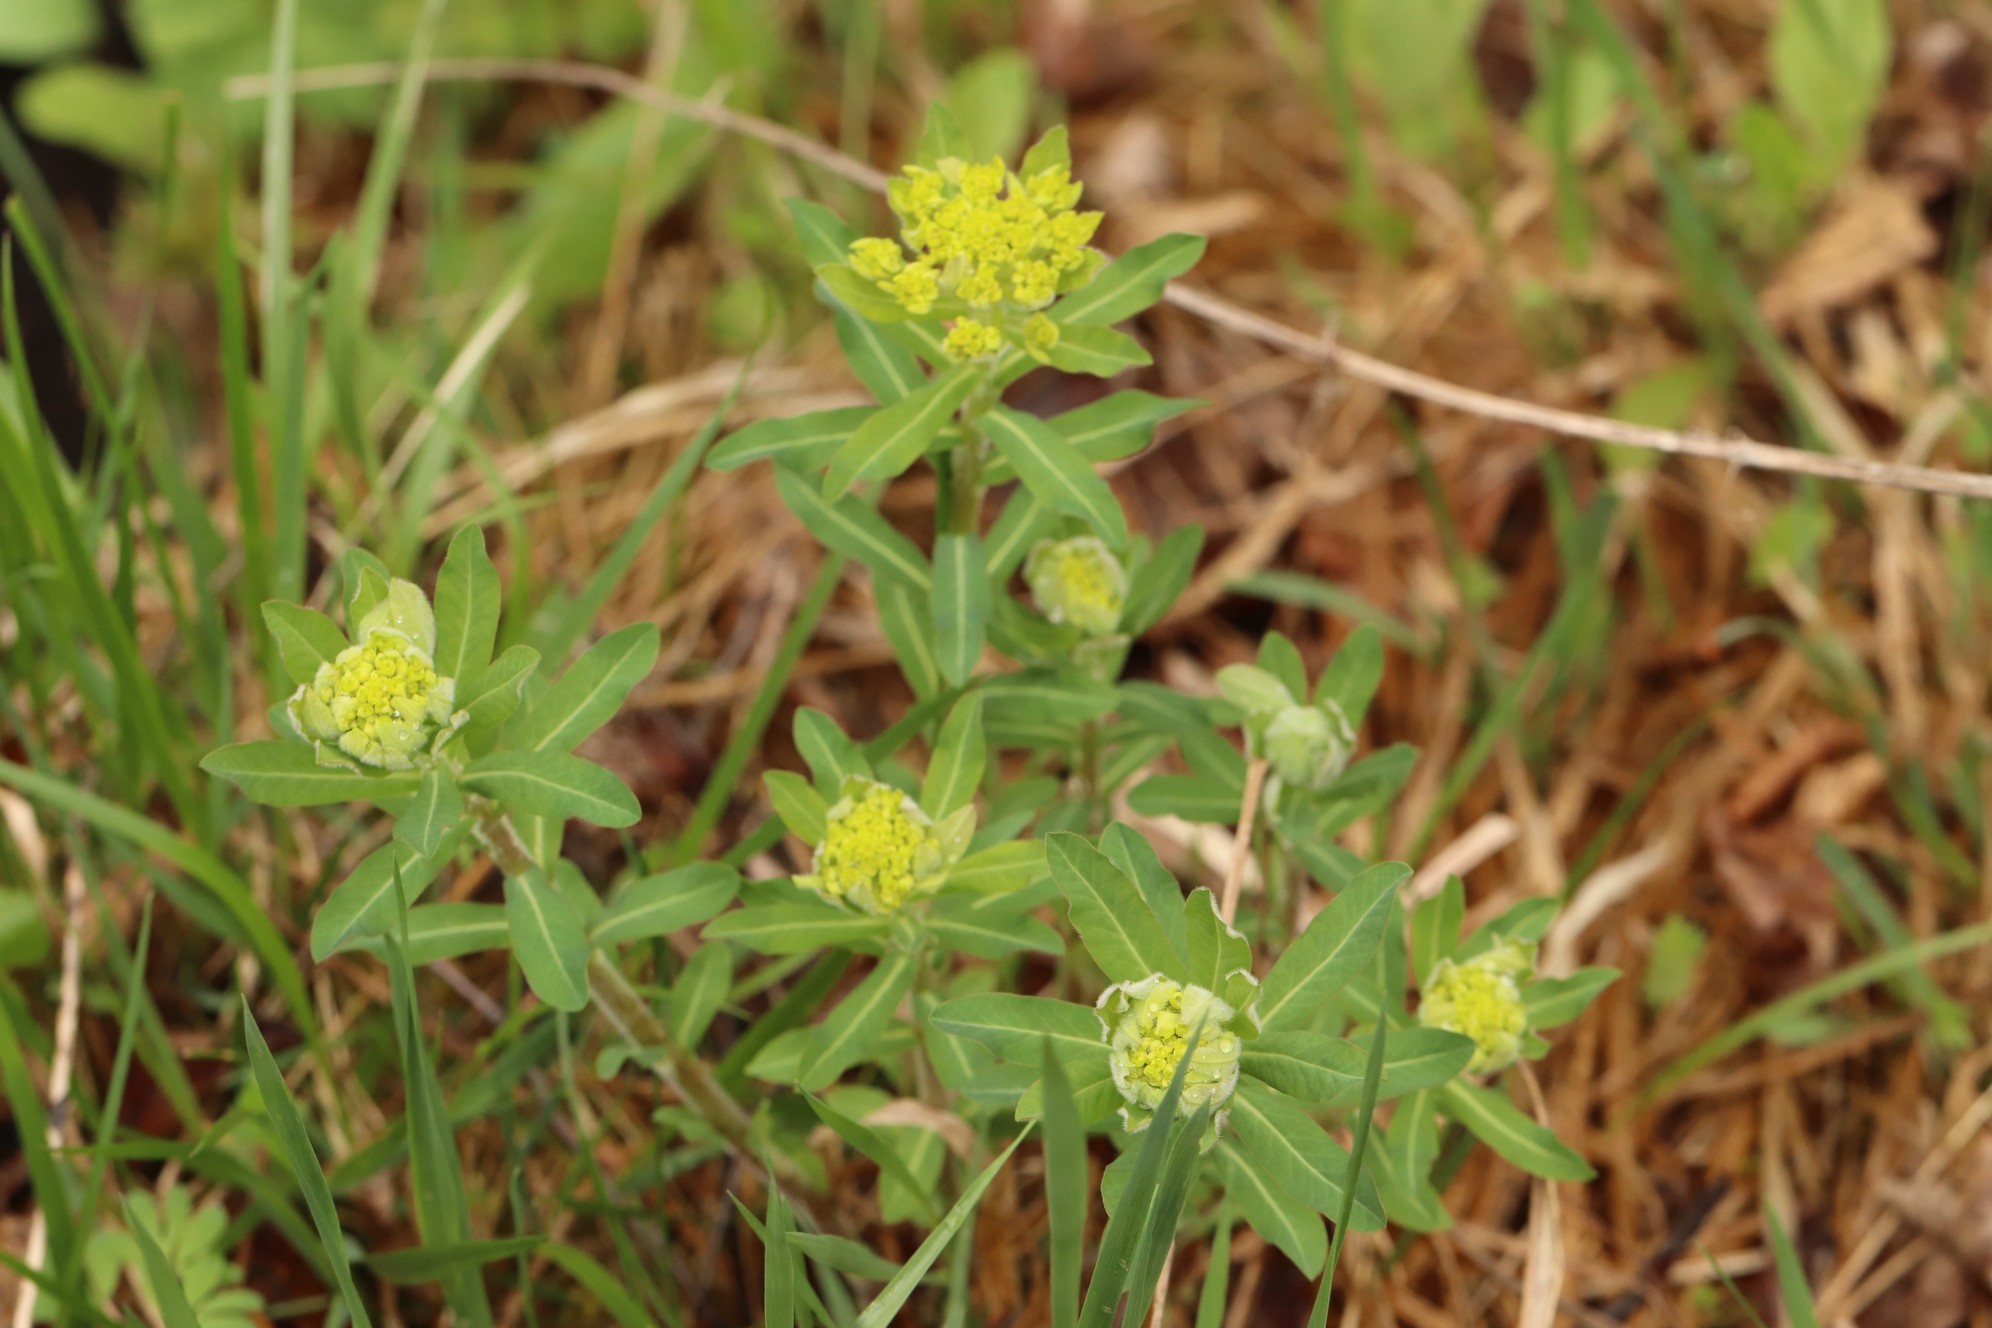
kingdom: Plantae
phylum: Tracheophyta
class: Magnoliopsida
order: Malpighiales
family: Euphorbiaceae
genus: Euphorbia
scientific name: Euphorbia pilosa
